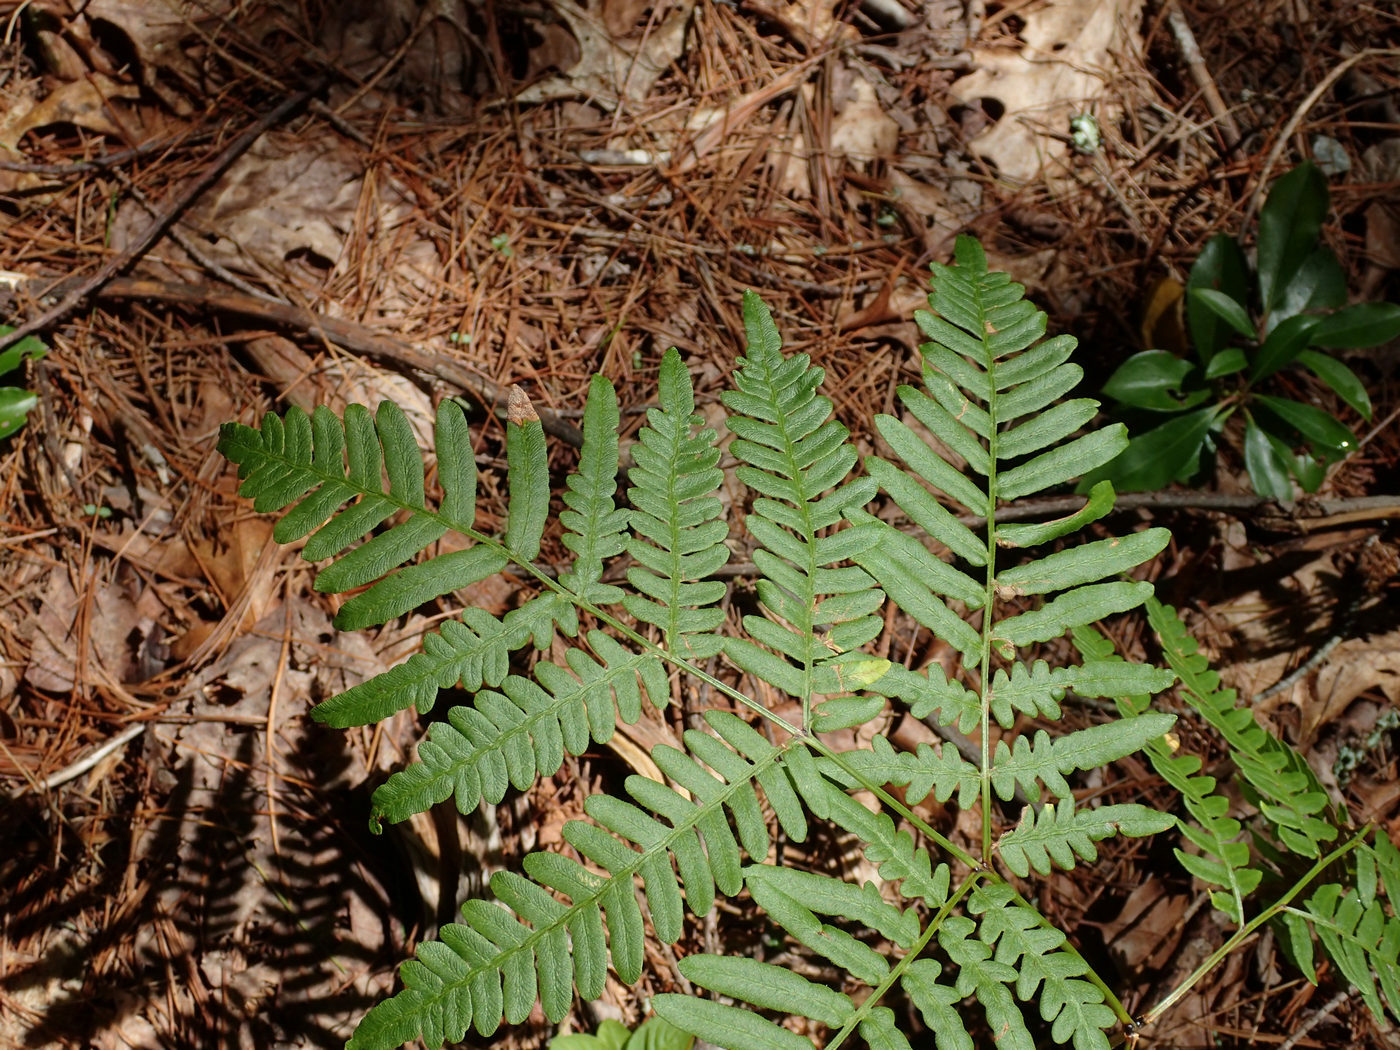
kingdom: Plantae
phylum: Tracheophyta
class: Polypodiopsida
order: Polypodiales
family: Dennstaedtiaceae
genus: Pteridium
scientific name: Pteridium aquilinum
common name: Bracken
